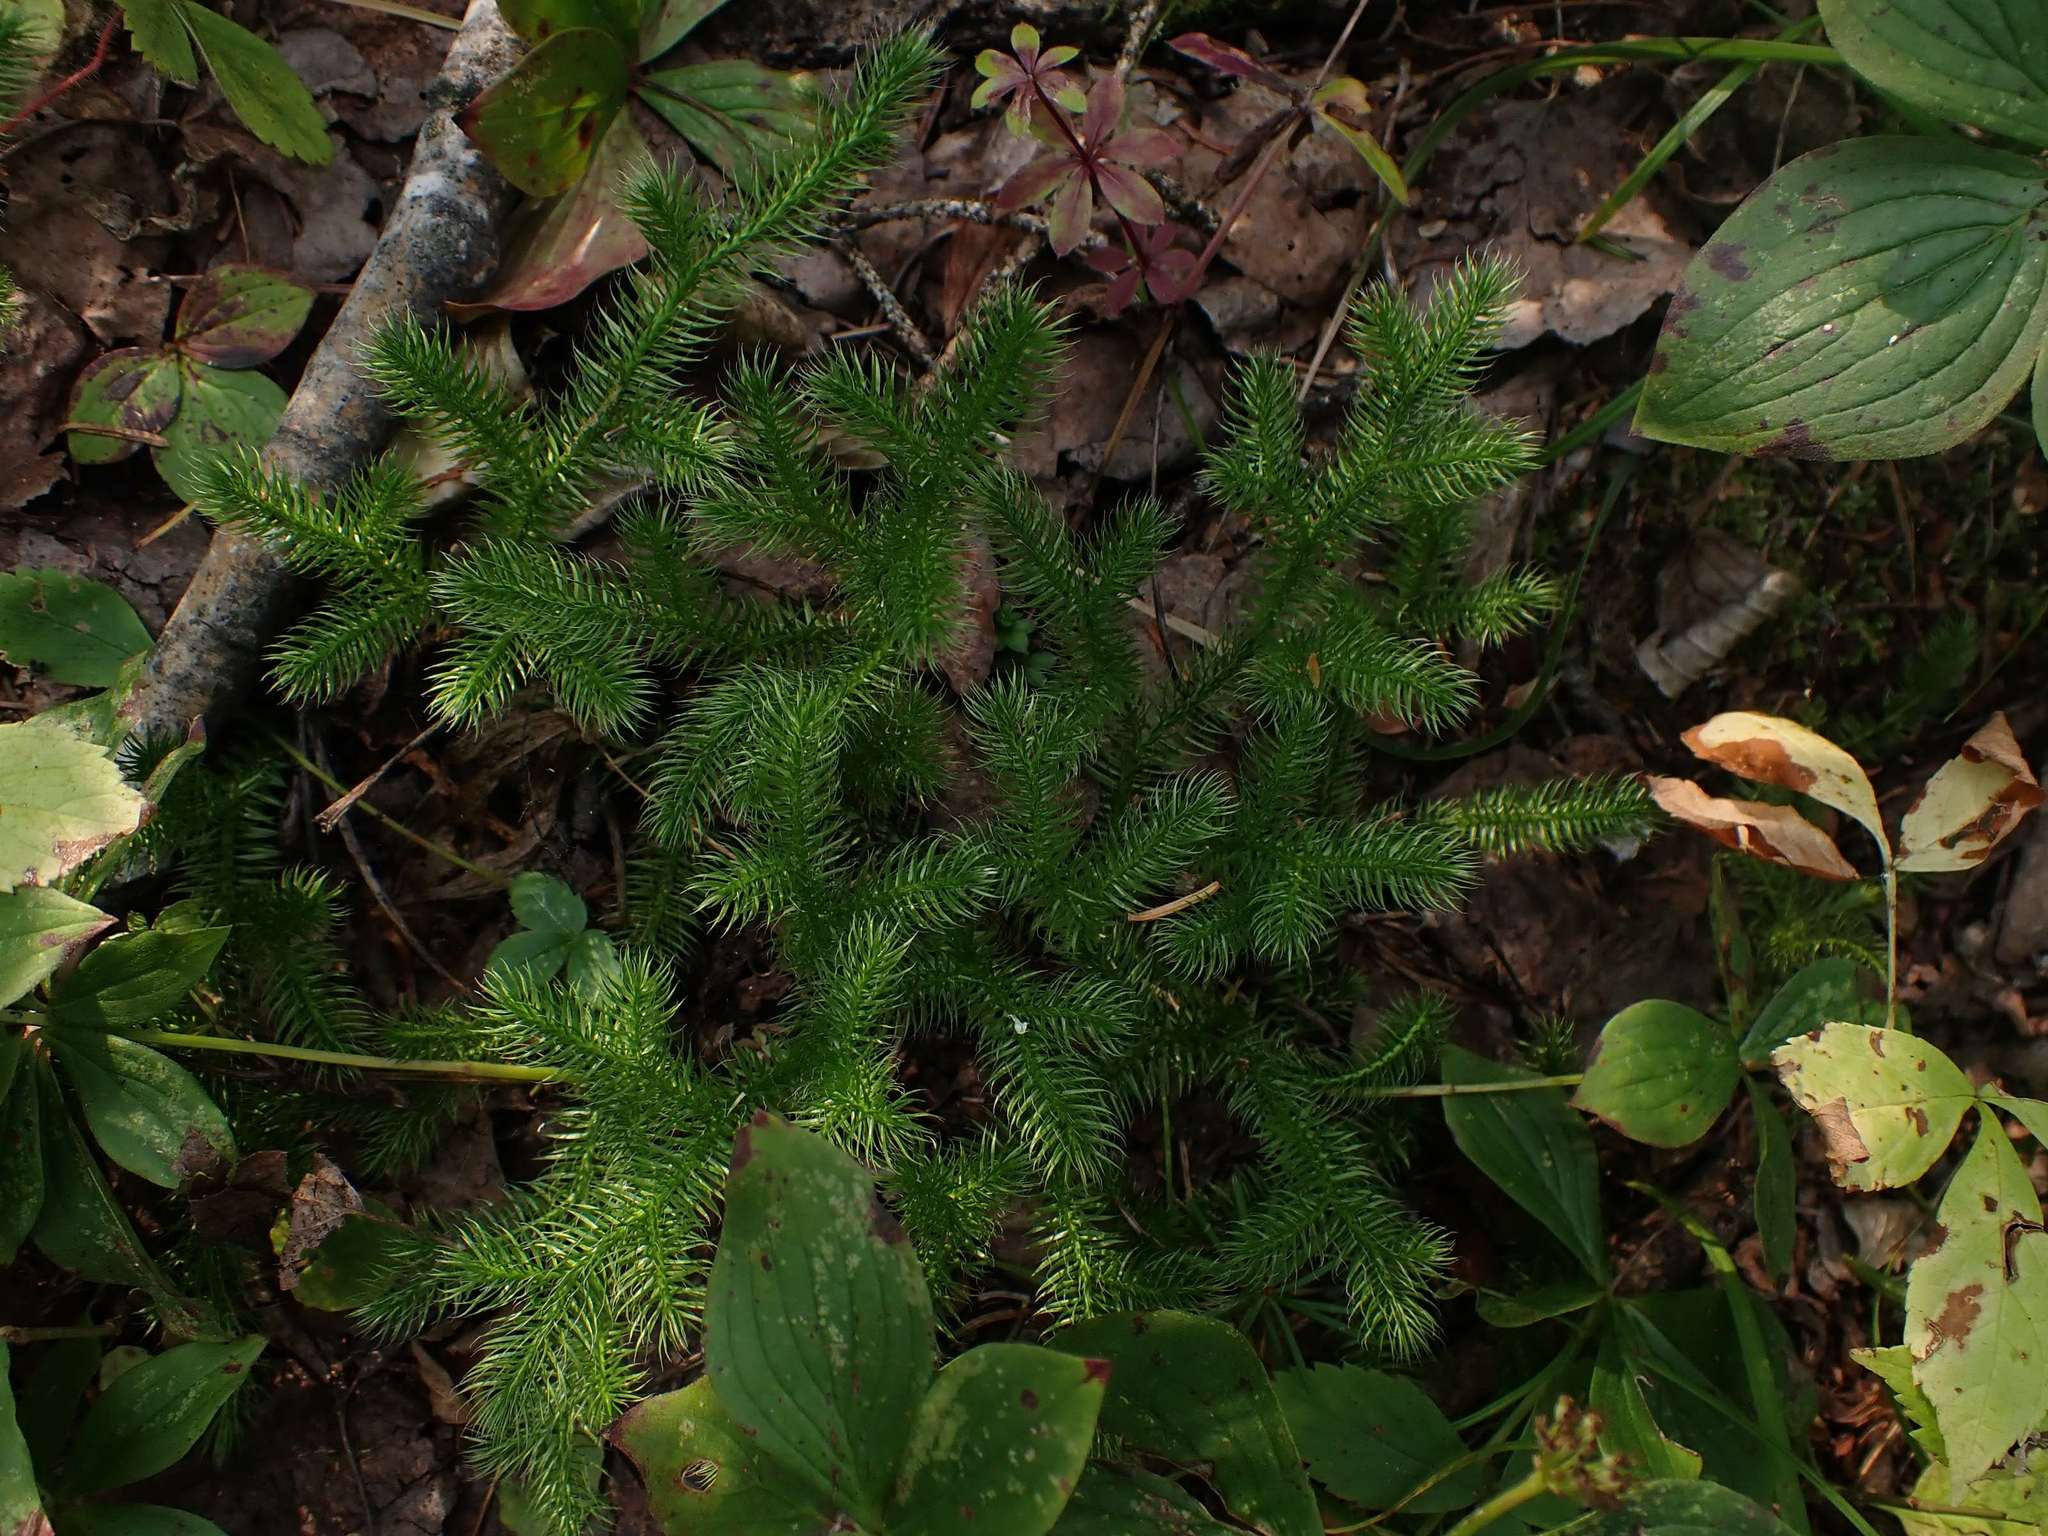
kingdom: Plantae
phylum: Tracheophyta
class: Lycopodiopsida
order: Lycopodiales
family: Lycopodiaceae
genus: Lycopodium
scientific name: Lycopodium clavatum
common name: Stag's-horn clubmoss
